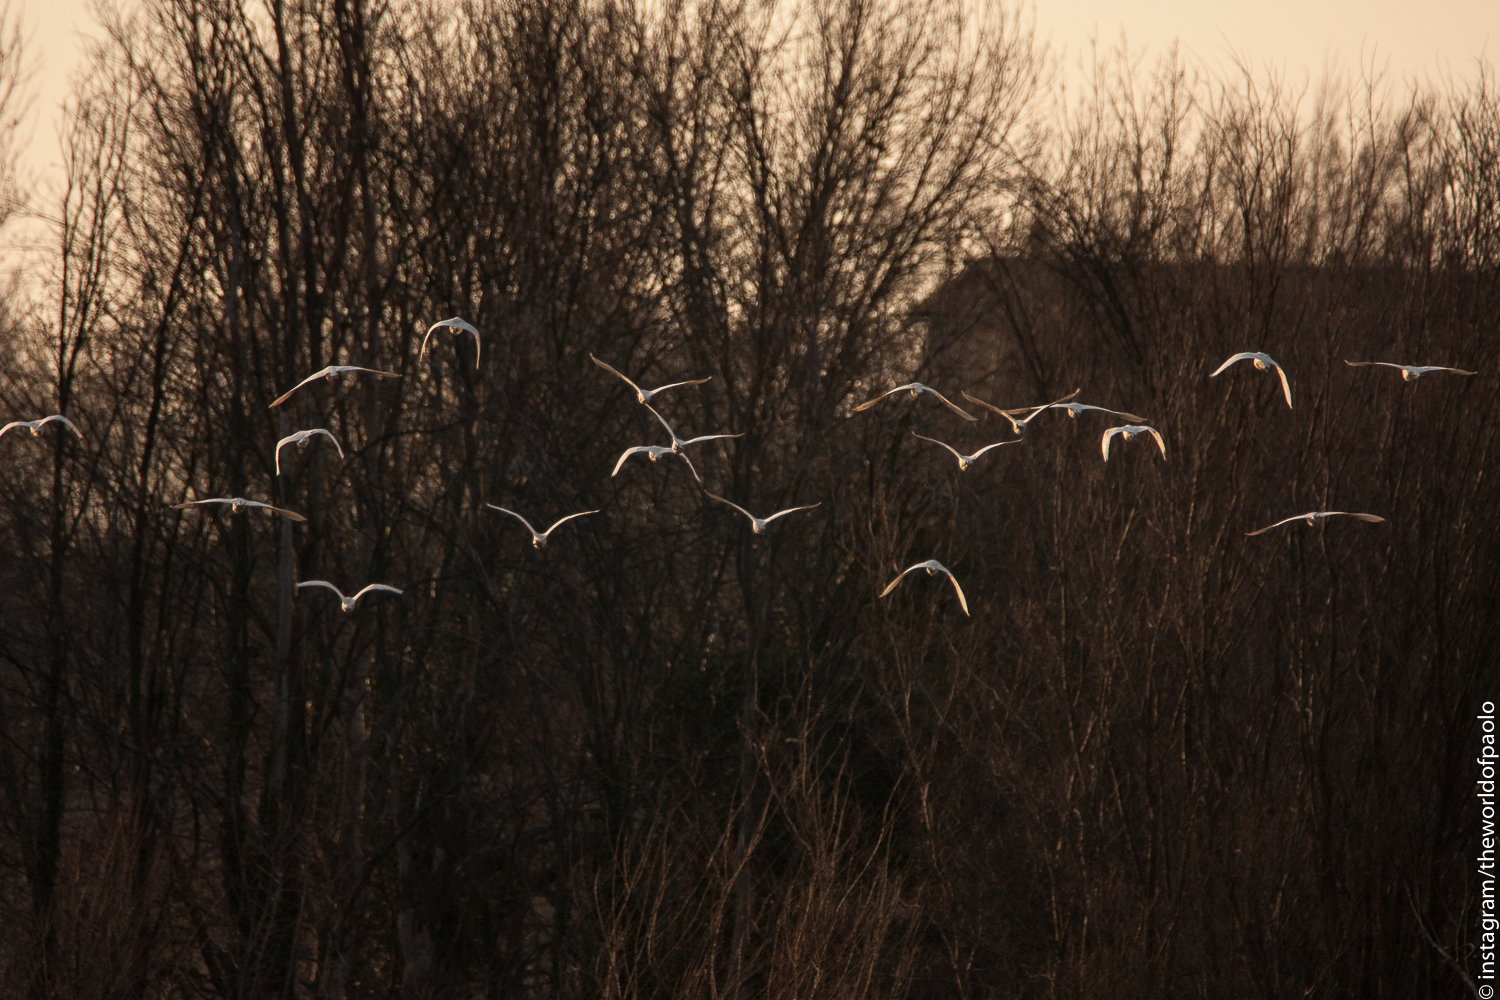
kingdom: Animalia
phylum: Chordata
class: Aves
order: Pelecaniformes
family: Ardeidae
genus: Bubulcus
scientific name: Bubulcus ibis
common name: Cattle egret
